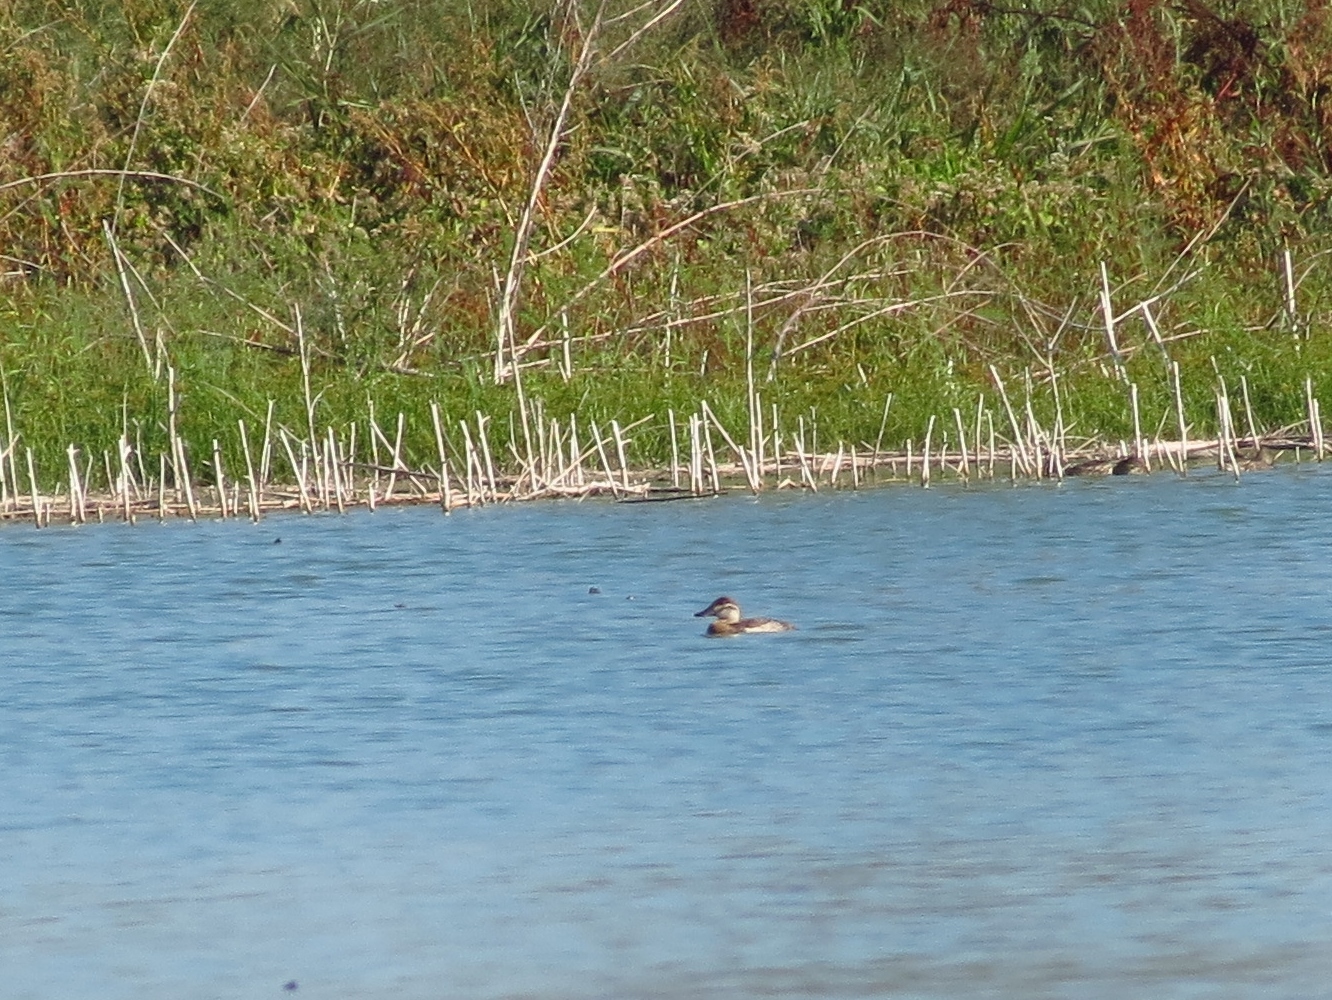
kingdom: Animalia
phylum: Chordata
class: Aves
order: Anseriformes
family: Anatidae
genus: Oxyura
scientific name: Oxyura jamaicensis
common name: Ruddy duck
